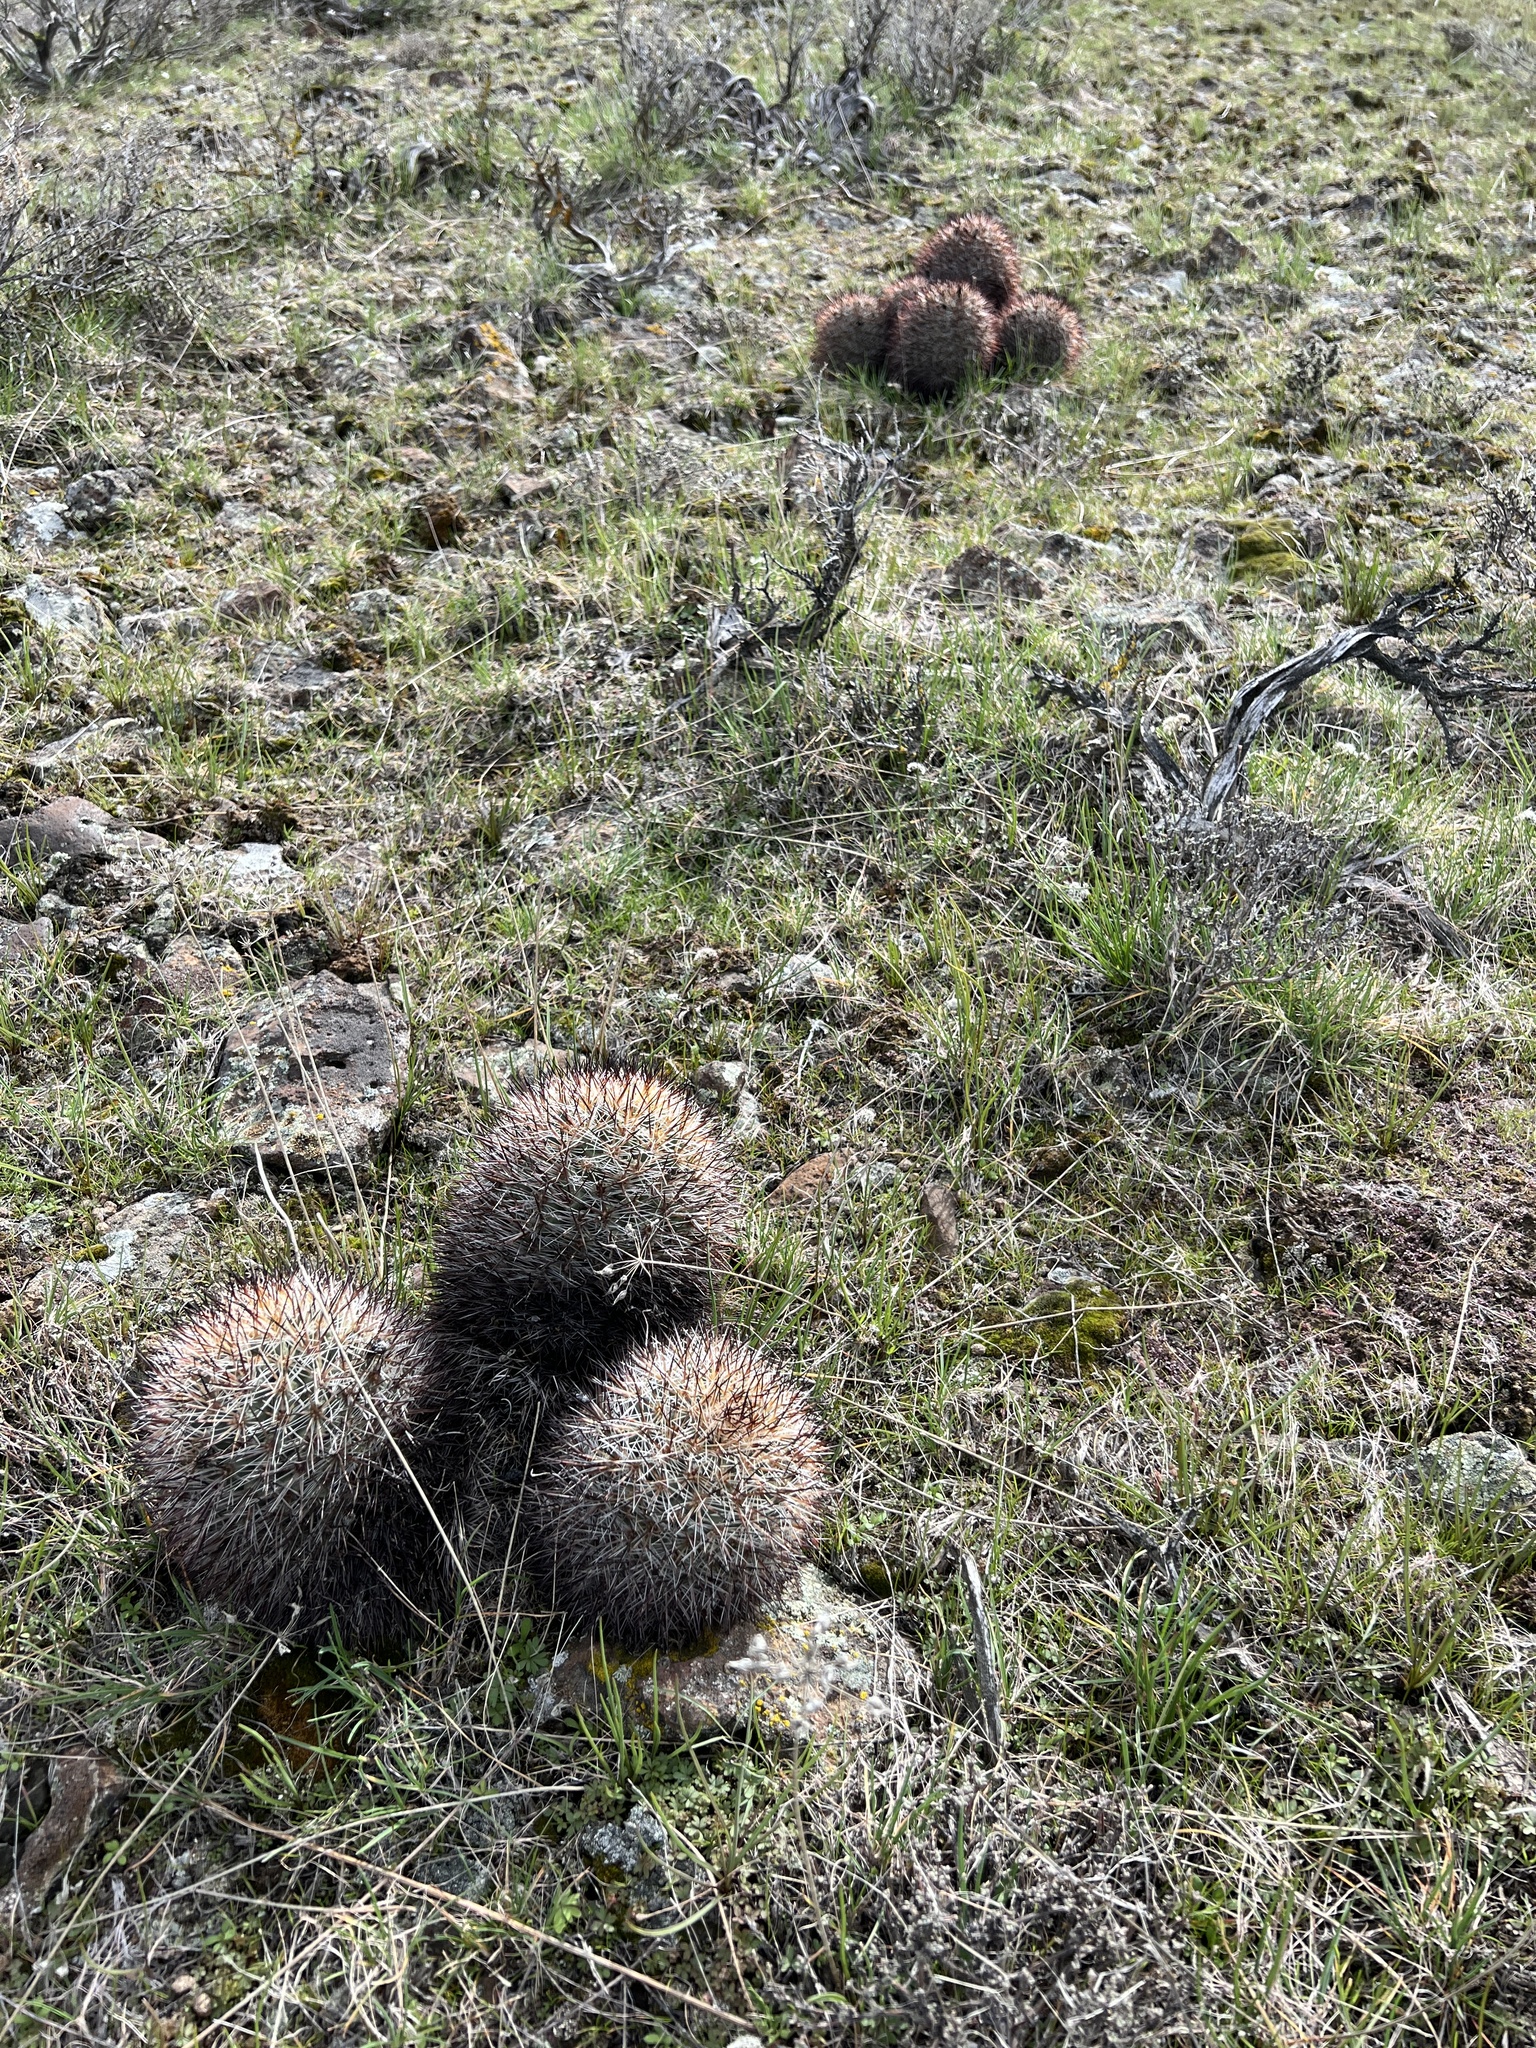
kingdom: Plantae
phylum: Tracheophyta
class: Magnoliopsida
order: Caryophyllales
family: Cactaceae
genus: Pediocactus
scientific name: Pediocactus nigrispinus
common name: Simpson's hedgehog cactus
